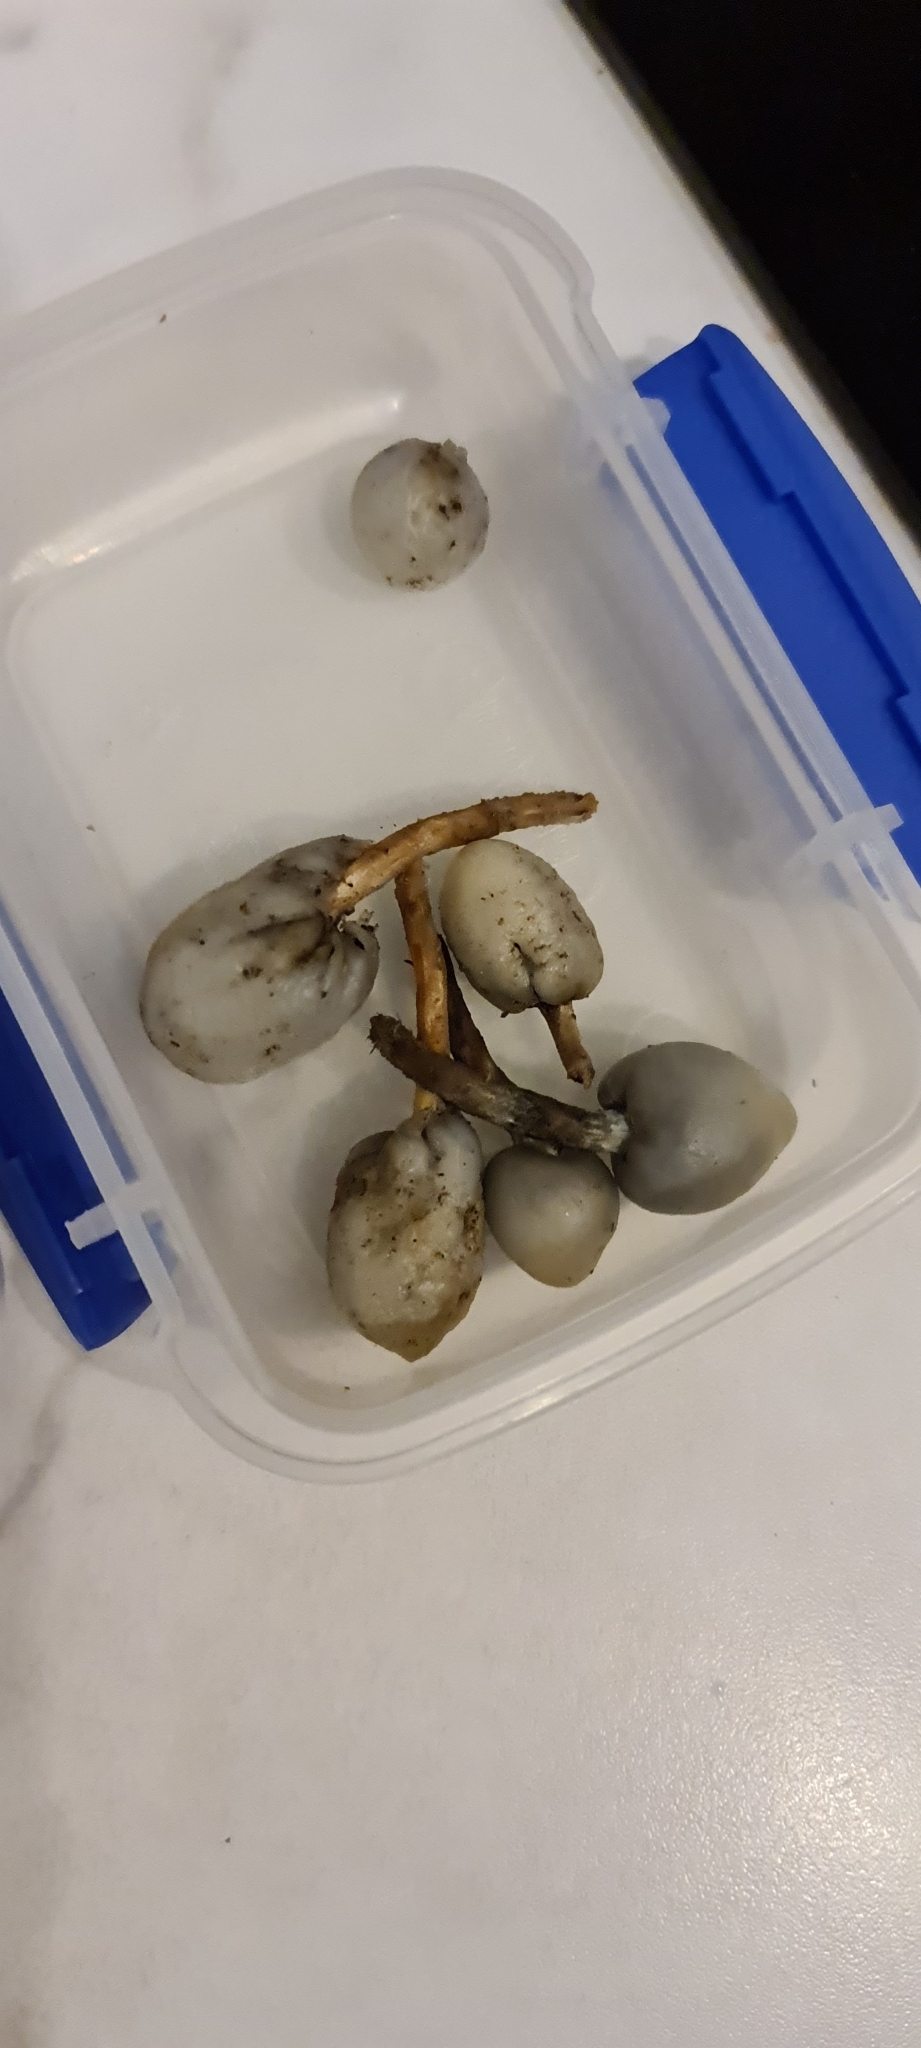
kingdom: Fungi
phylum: Basidiomycota
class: Agaricomycetes
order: Agaricales
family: Hymenogastraceae
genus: Psilocybe
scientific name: Psilocybe weraroa
